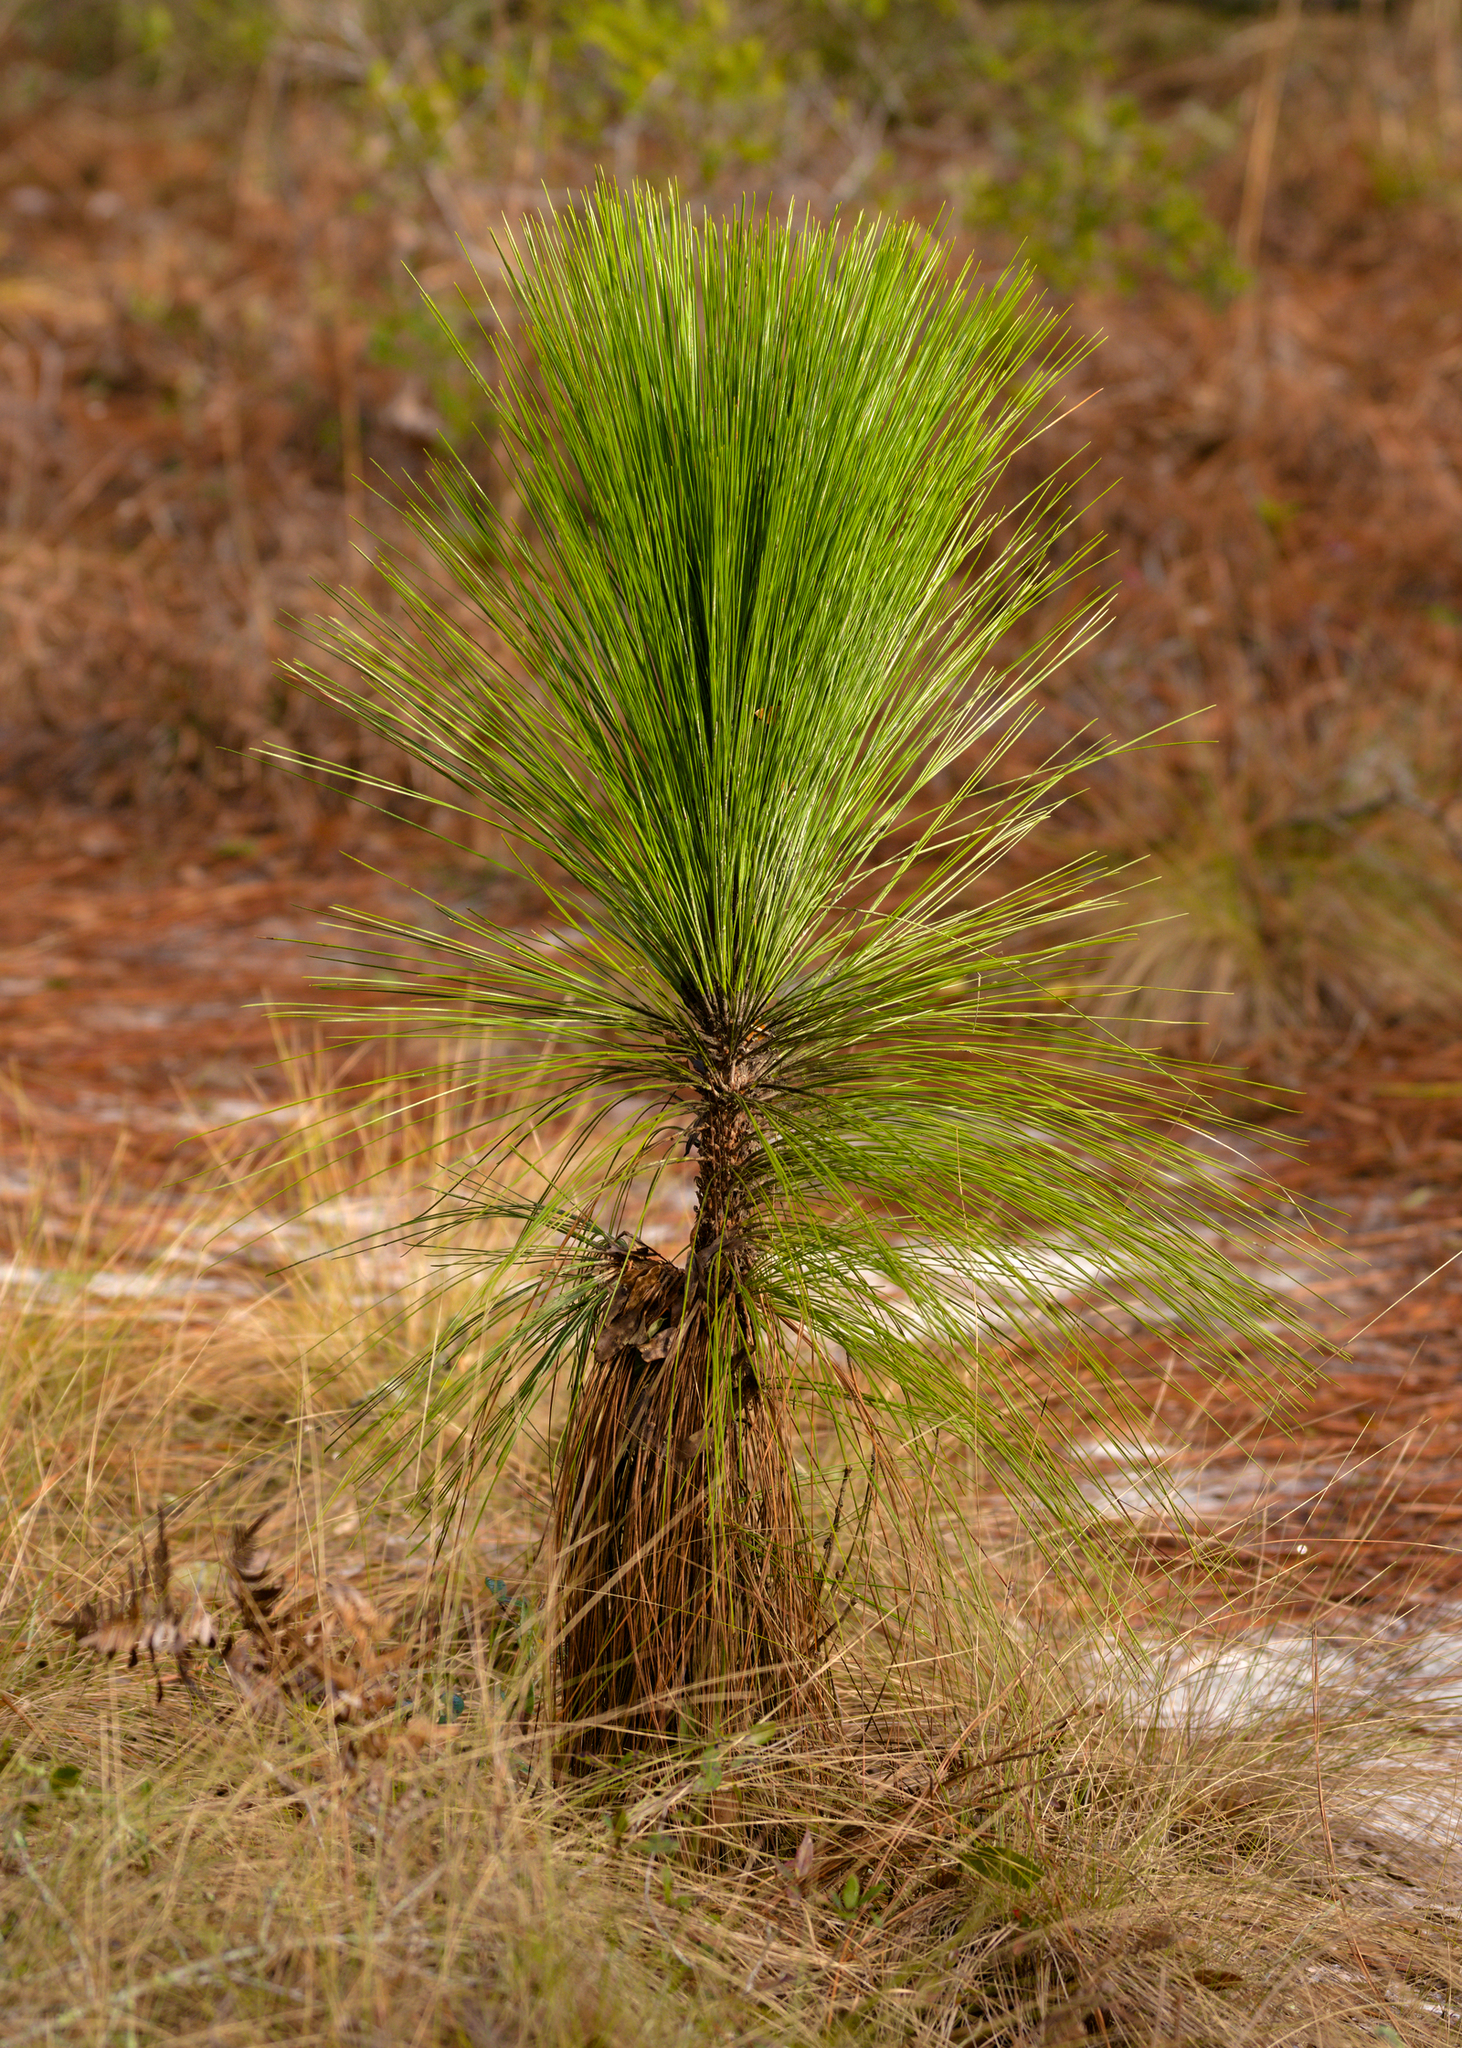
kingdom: Plantae
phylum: Tracheophyta
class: Pinopsida
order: Pinales
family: Pinaceae
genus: Pinus
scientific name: Pinus palustris
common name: Longleaf pine
